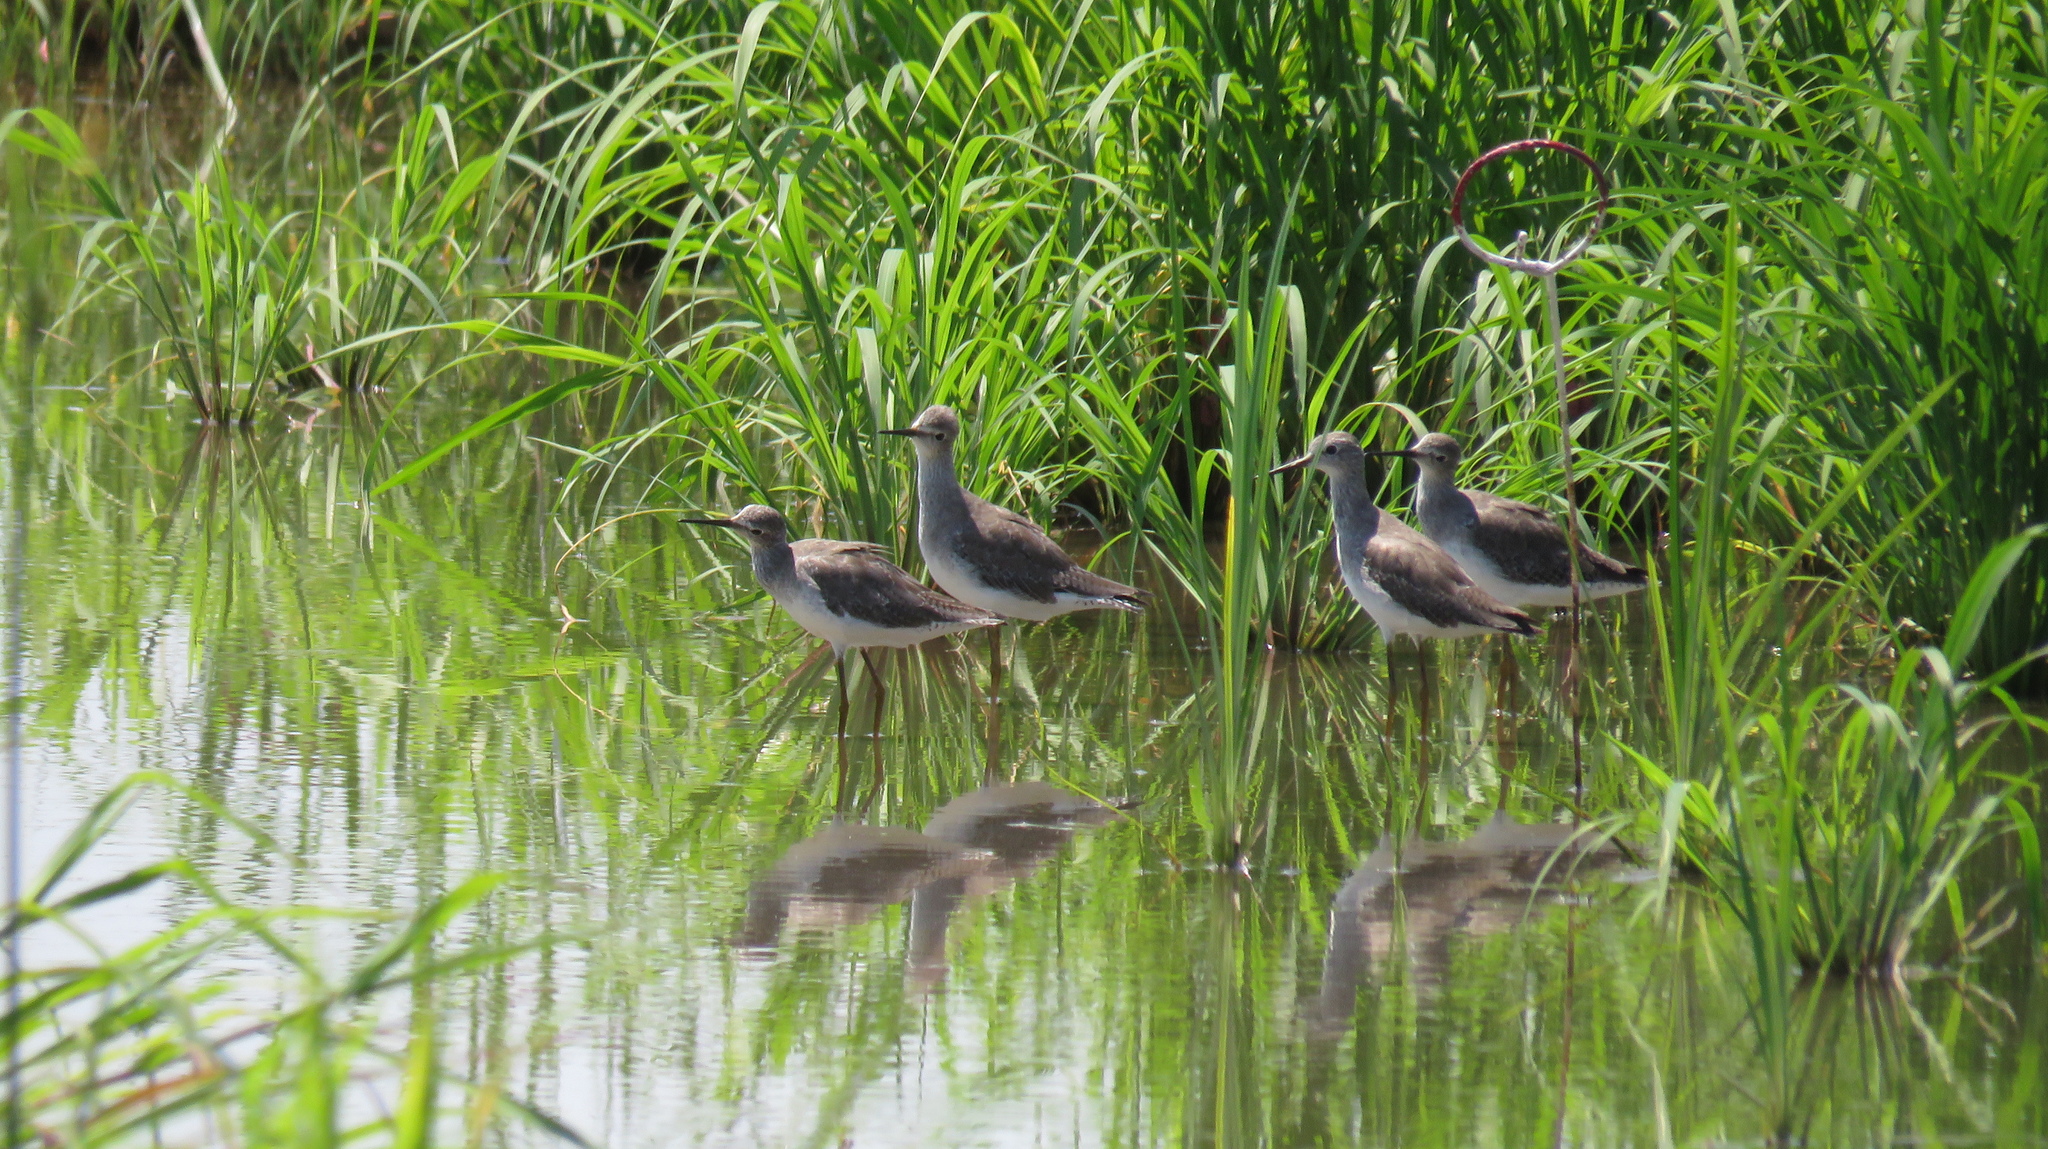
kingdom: Animalia
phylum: Chordata
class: Aves
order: Charadriiformes
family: Scolopacidae
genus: Tringa
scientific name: Tringa flavipes
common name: Lesser yellowlegs
